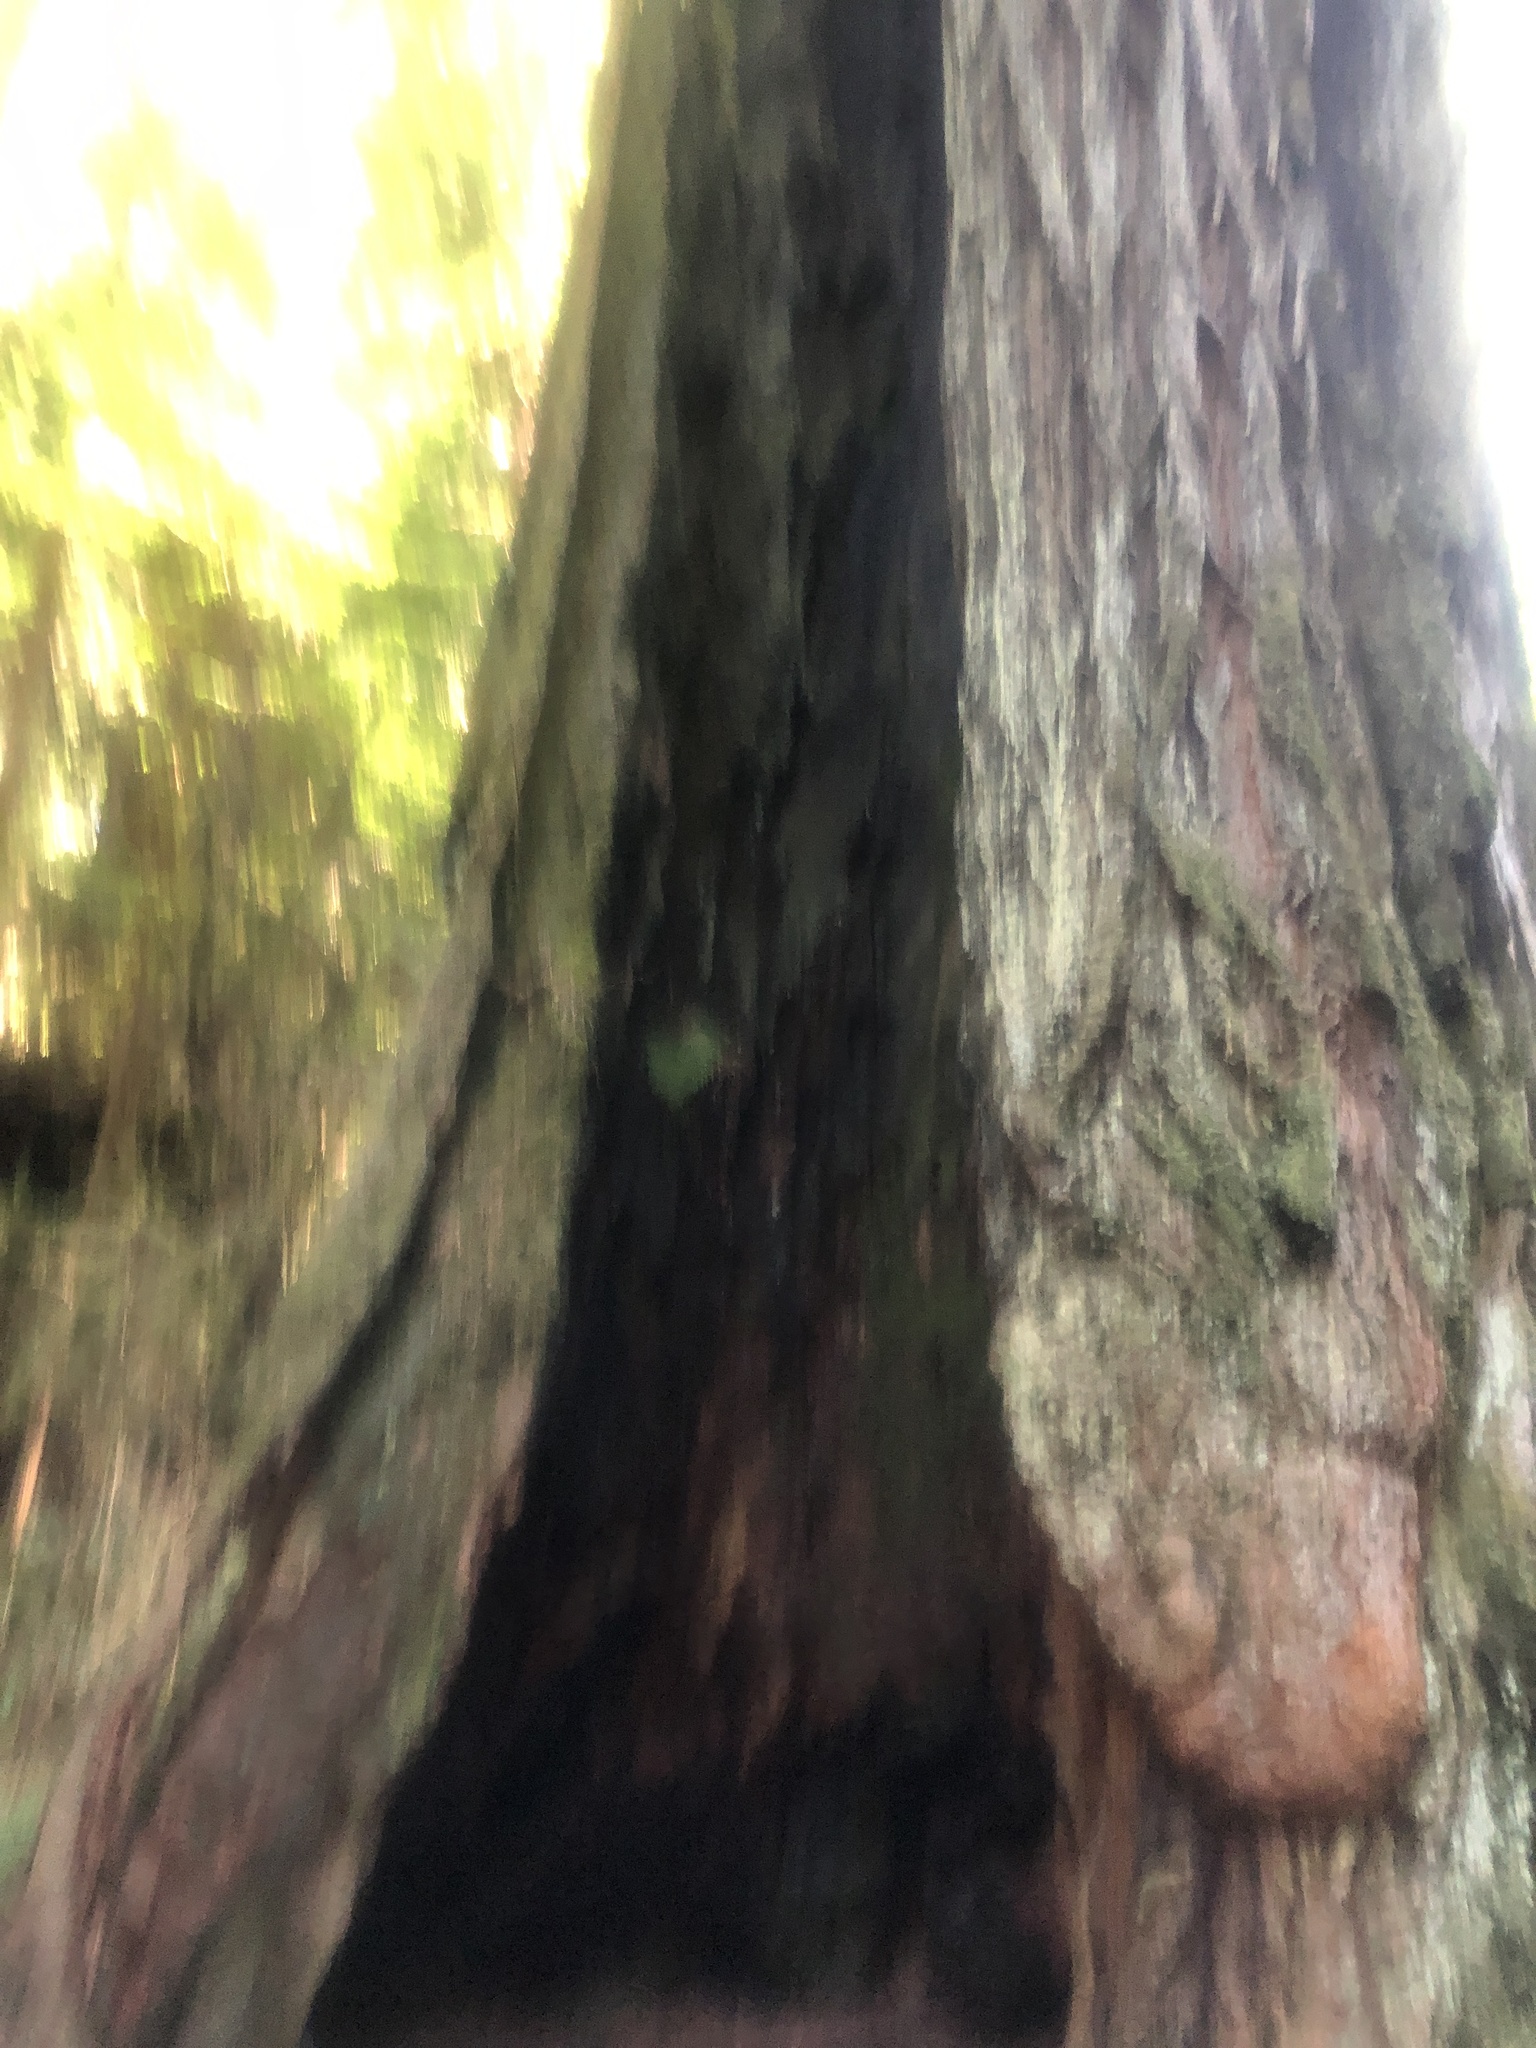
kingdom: Plantae
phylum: Tracheophyta
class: Pinopsida
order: Pinales
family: Cupressaceae
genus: Sequoia
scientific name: Sequoia sempervirens
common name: Coast redwood
